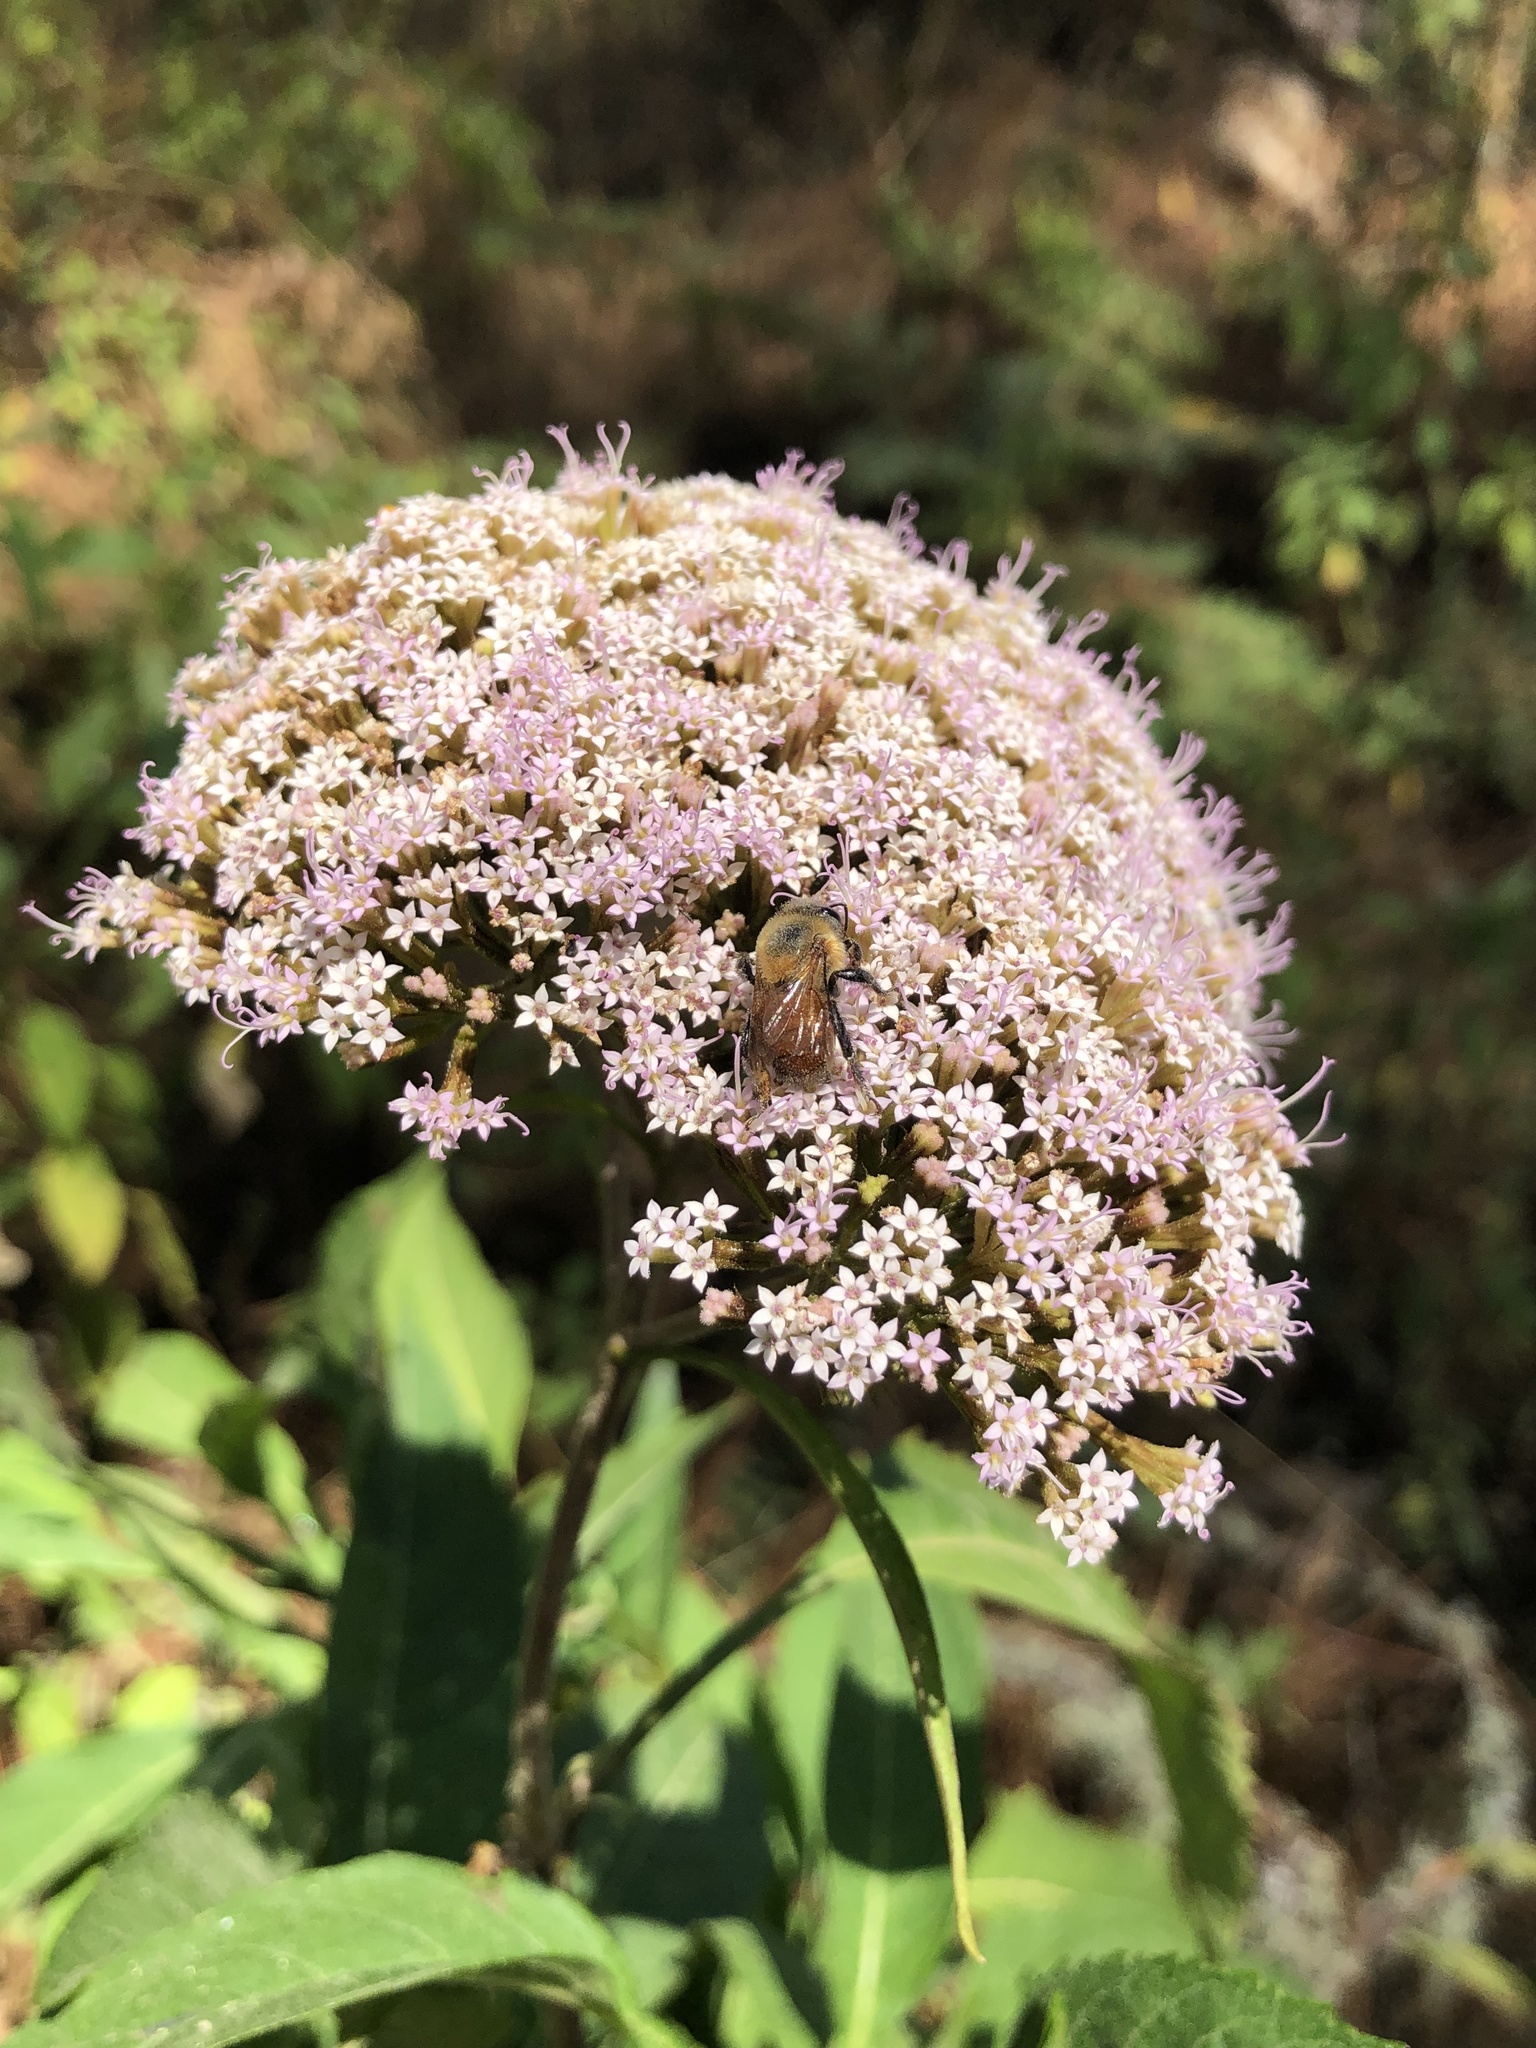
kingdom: Plantae
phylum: Tracheophyta
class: Magnoliopsida
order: Asterales
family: Asteraceae
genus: Stevia
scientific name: Stevia microchaeta
